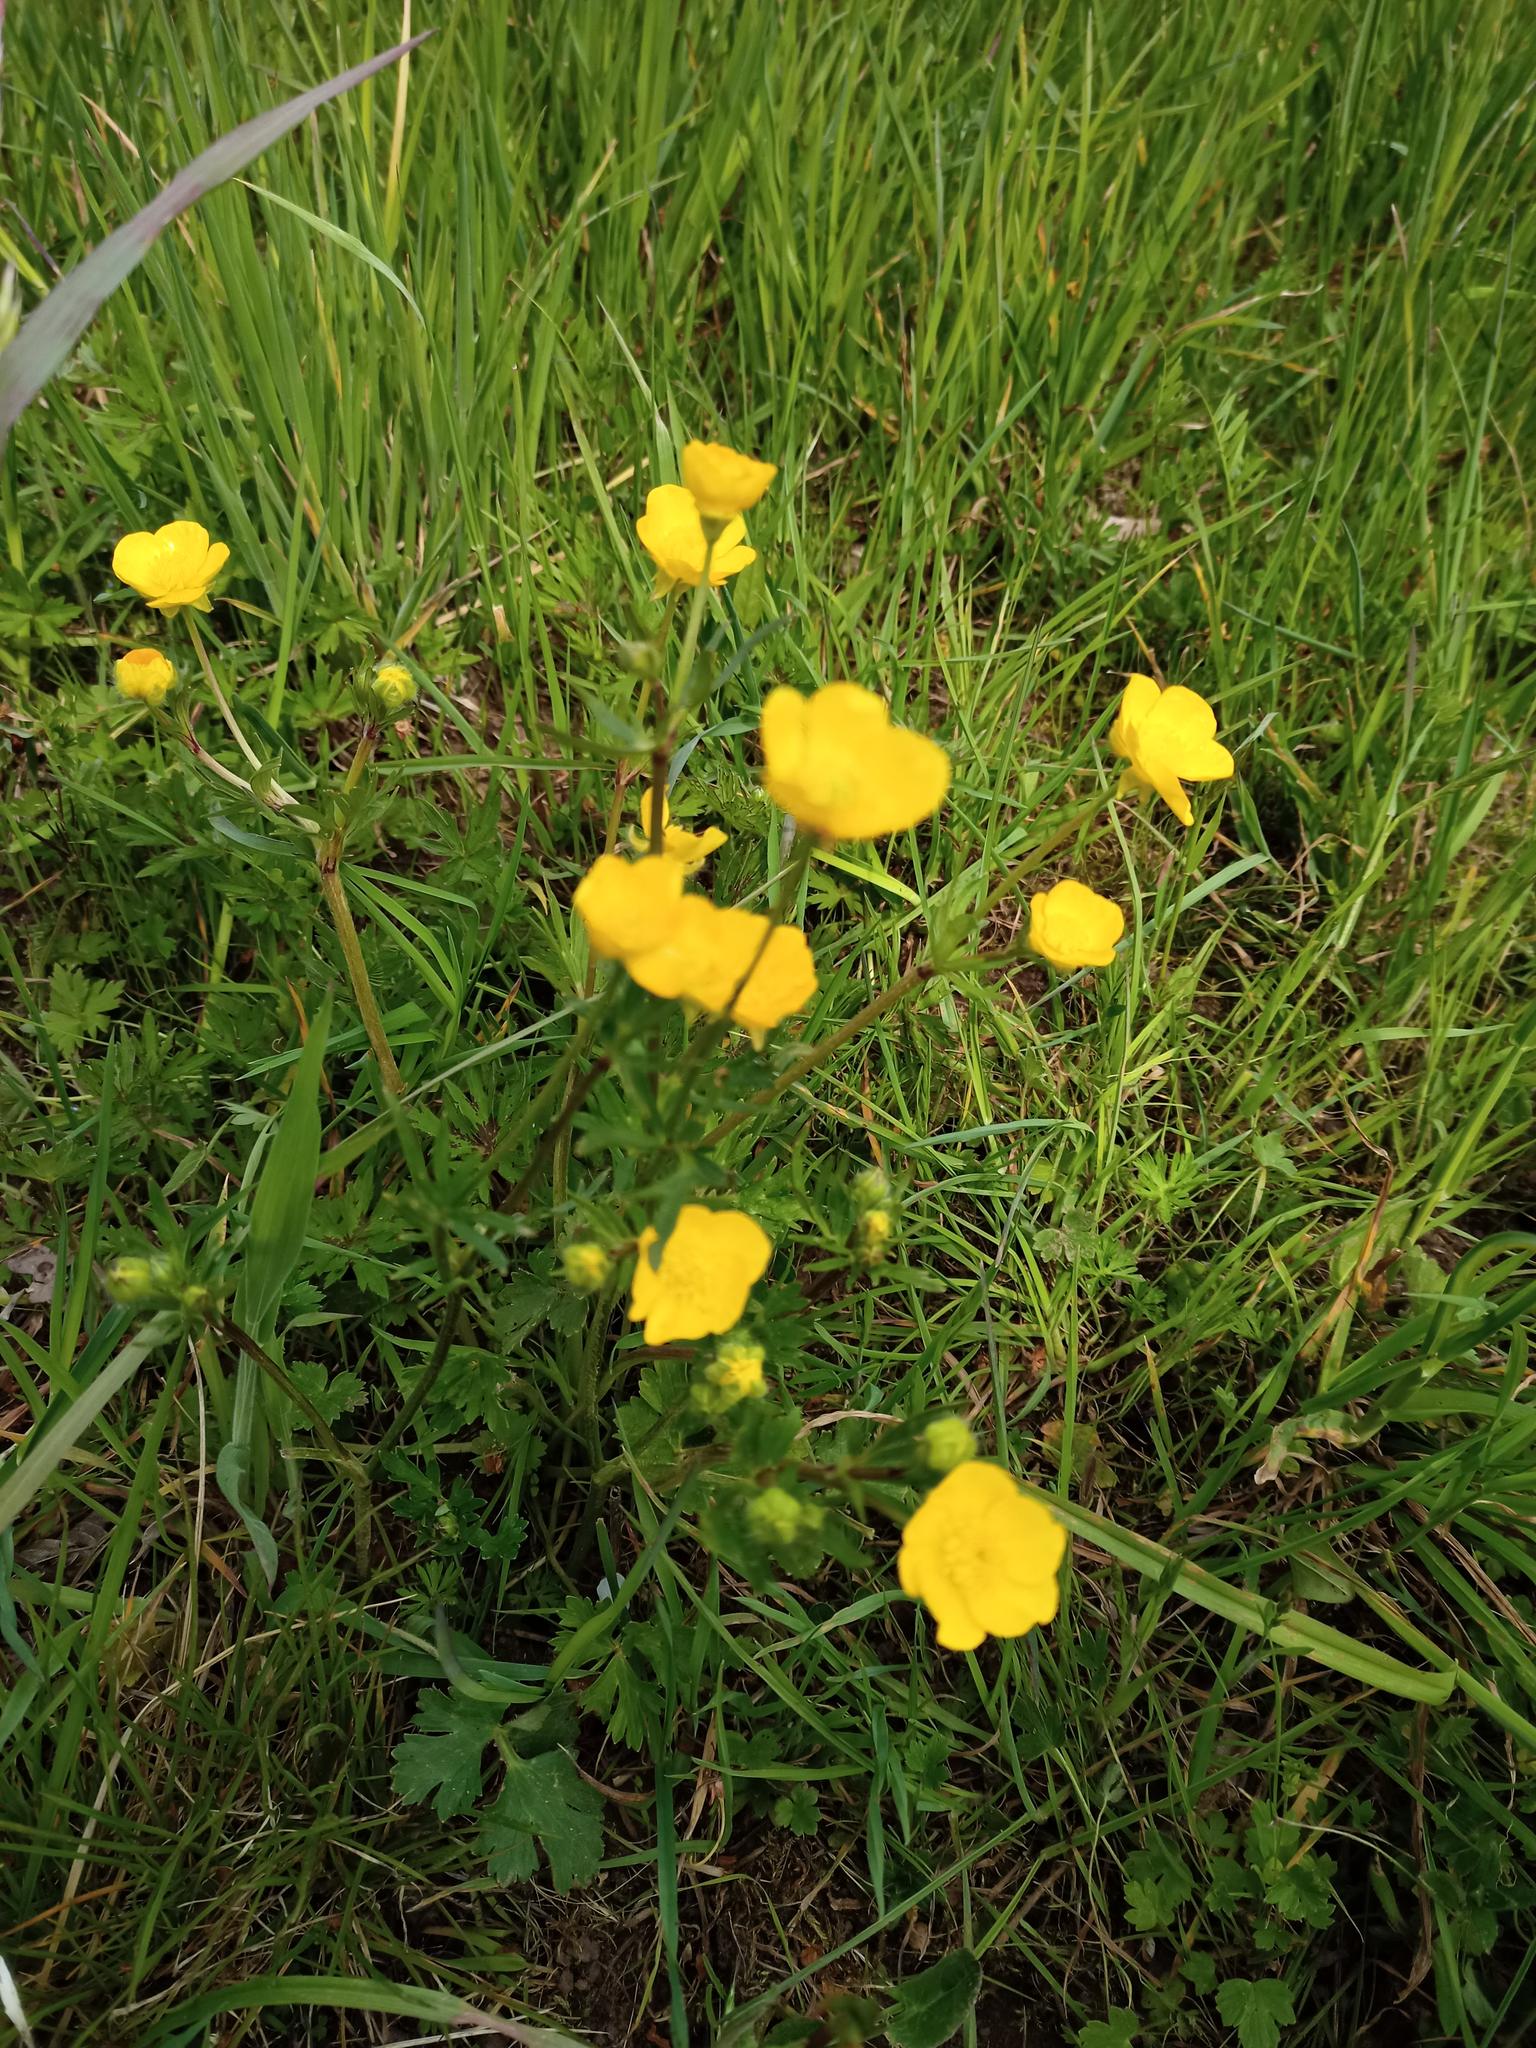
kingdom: Plantae
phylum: Tracheophyta
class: Magnoliopsida
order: Ranunculales
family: Ranunculaceae
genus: Ranunculus
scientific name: Ranunculus bulbosus
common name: Bulbous buttercup
